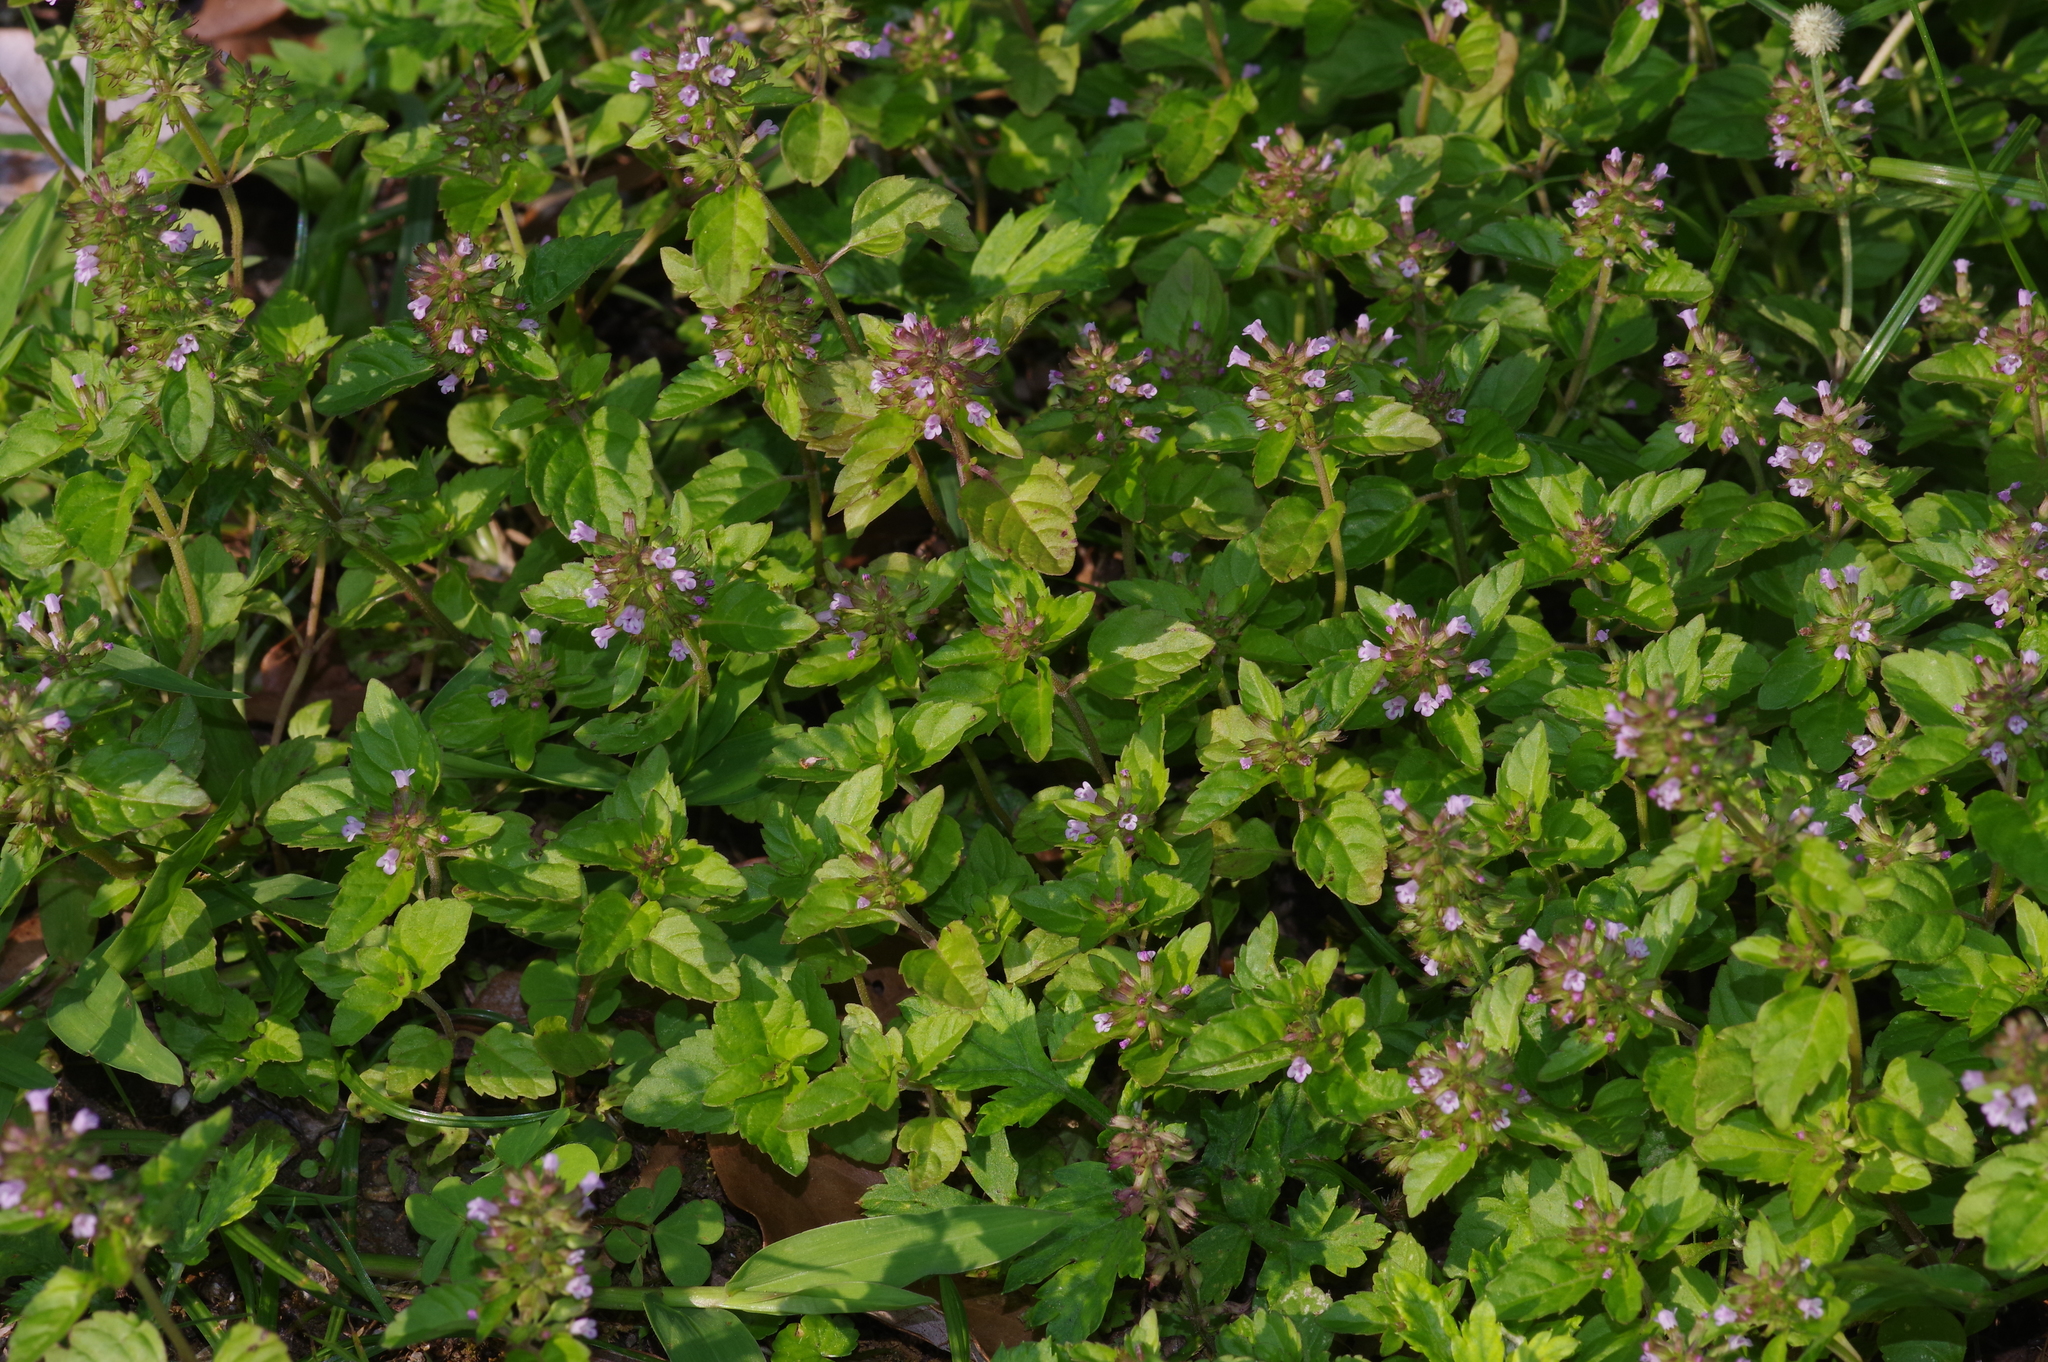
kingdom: Plantae
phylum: Tracheophyta
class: Magnoliopsida
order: Lamiales
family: Lamiaceae
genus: Clinopodium
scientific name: Clinopodium gracile
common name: Slender wild basil
